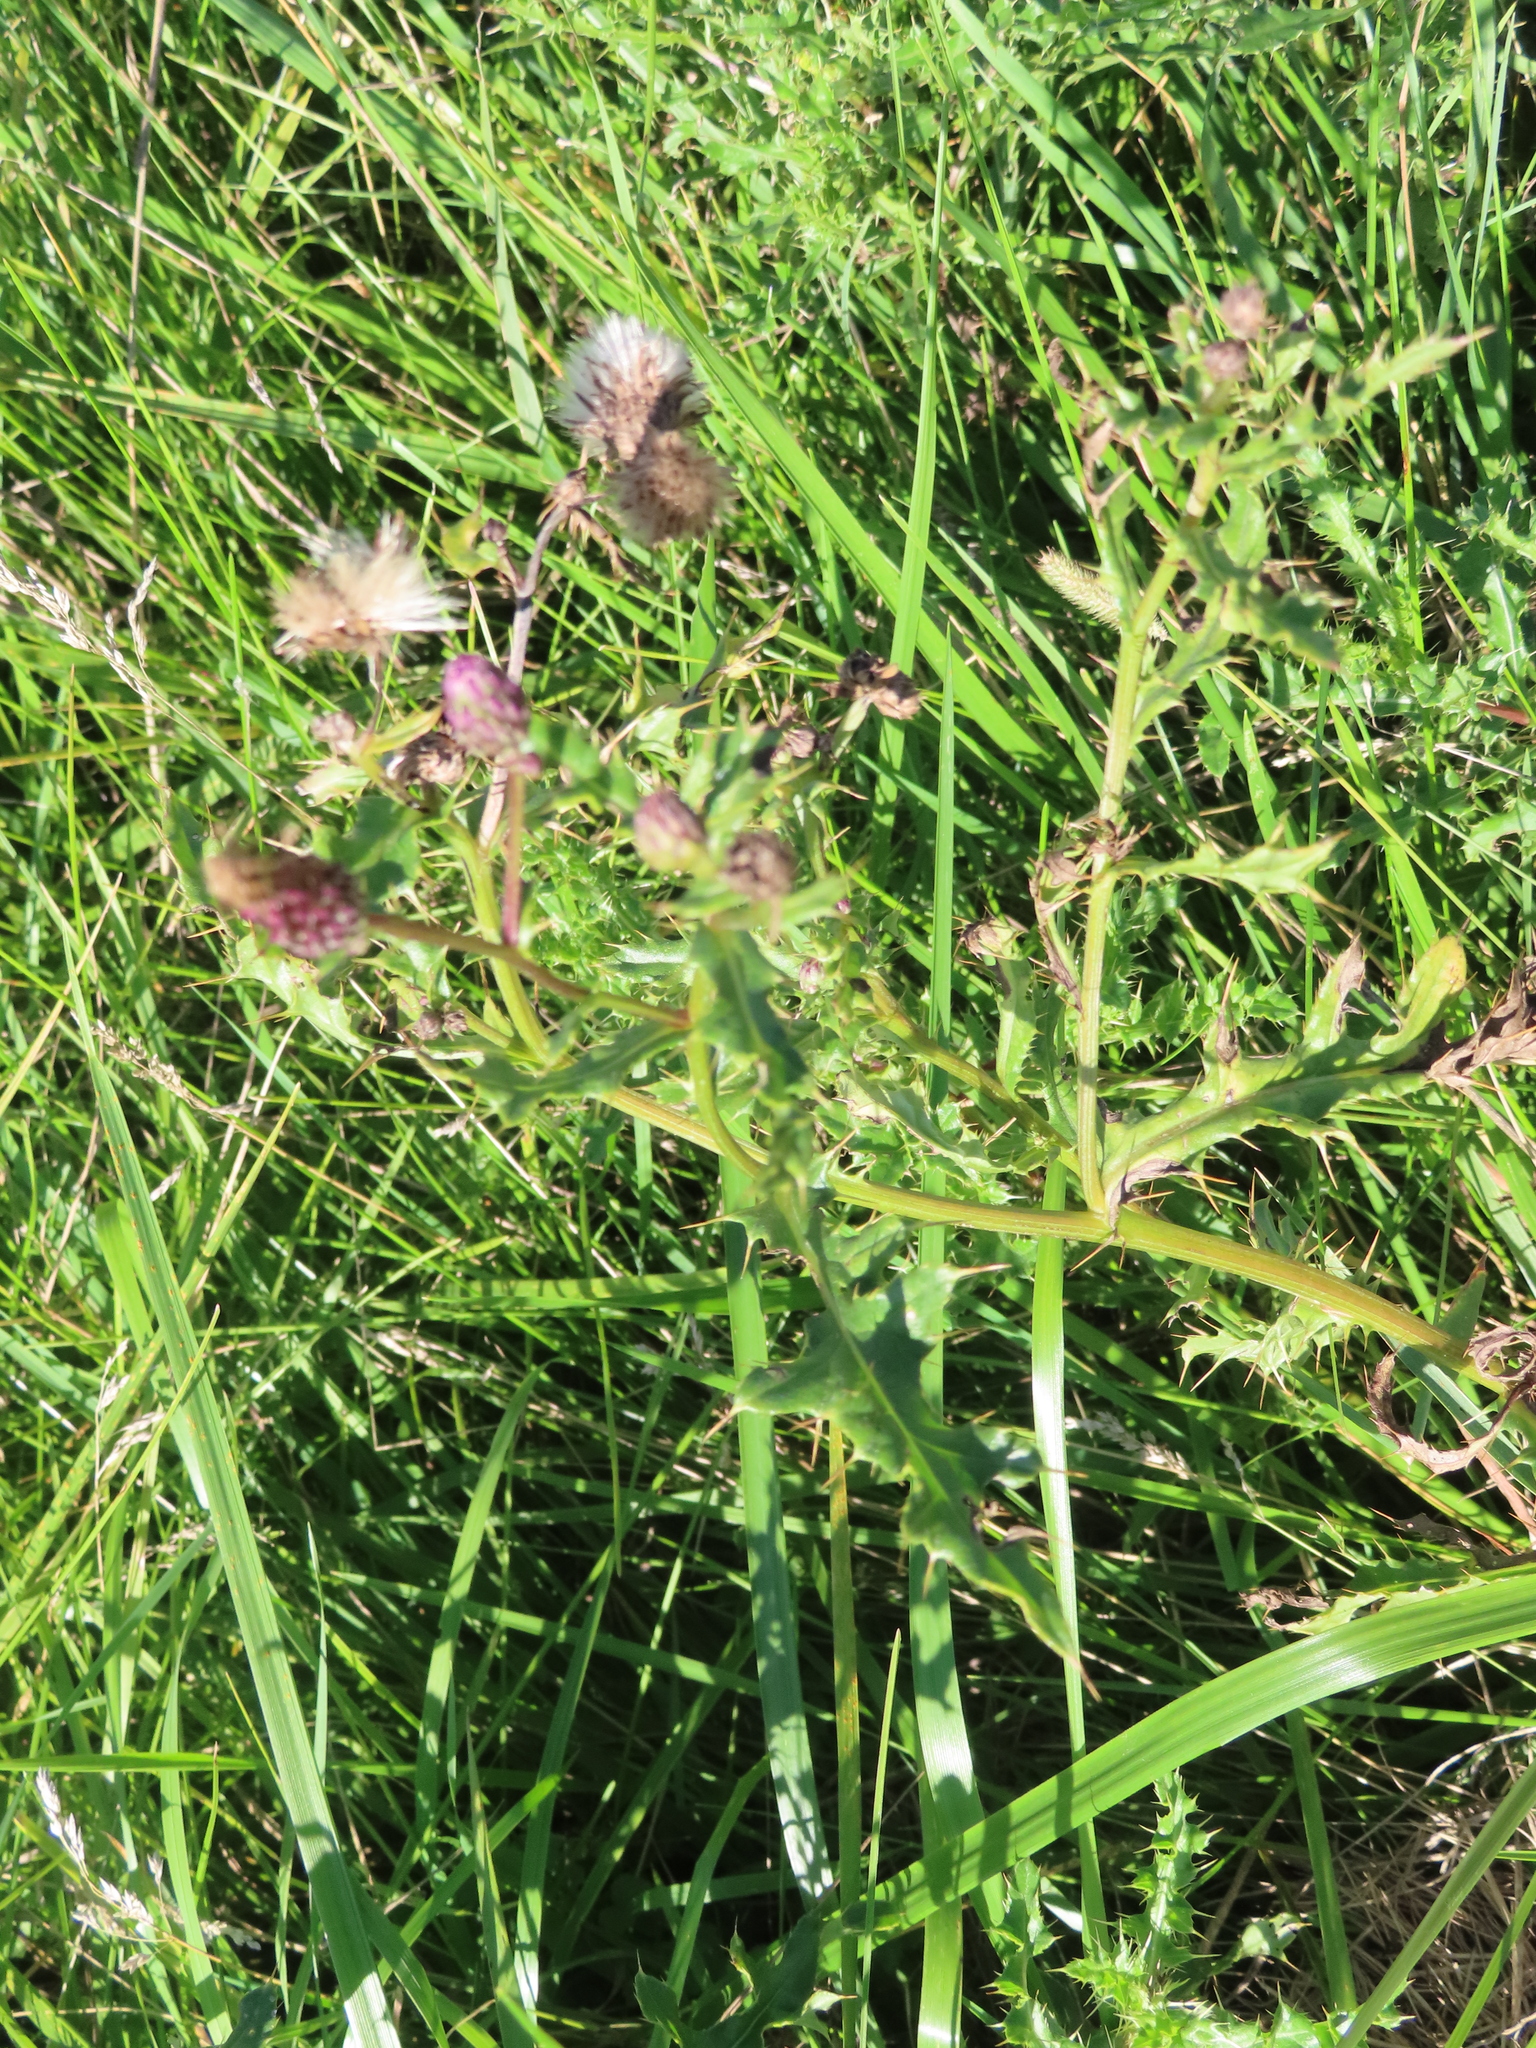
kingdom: Plantae
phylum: Tracheophyta
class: Magnoliopsida
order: Asterales
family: Asteraceae
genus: Cirsium
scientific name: Cirsium arvense
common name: Creeping thistle
